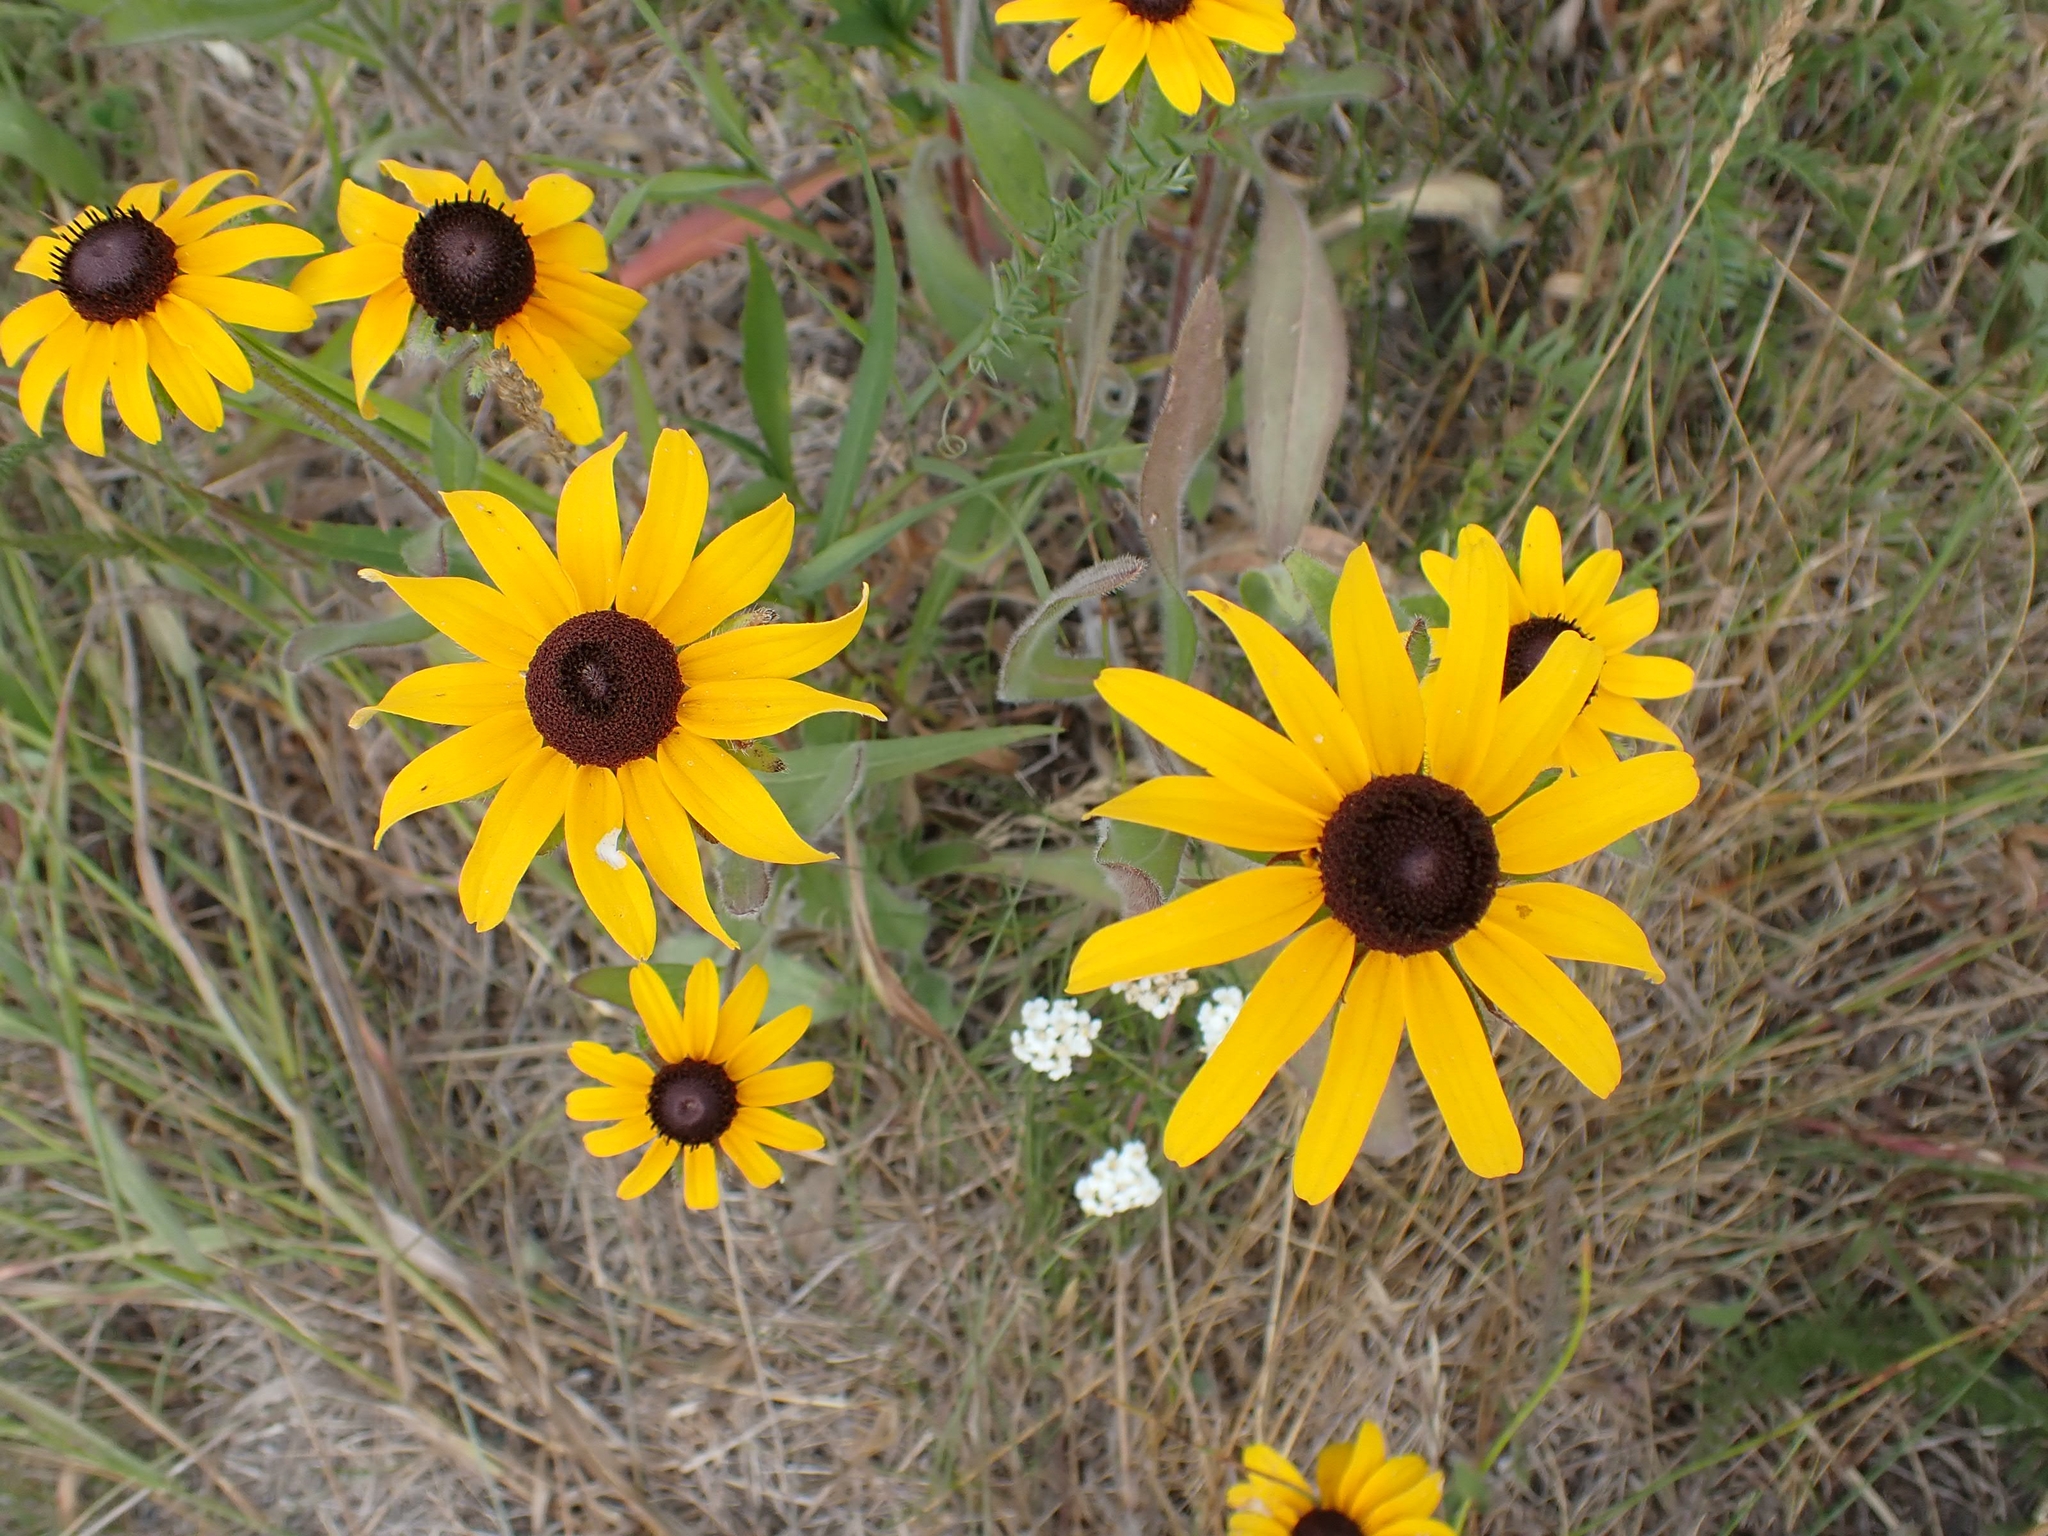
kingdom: Plantae
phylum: Tracheophyta
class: Magnoliopsida
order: Asterales
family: Asteraceae
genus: Rudbeckia
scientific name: Rudbeckia hirta
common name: Black-eyed-susan
